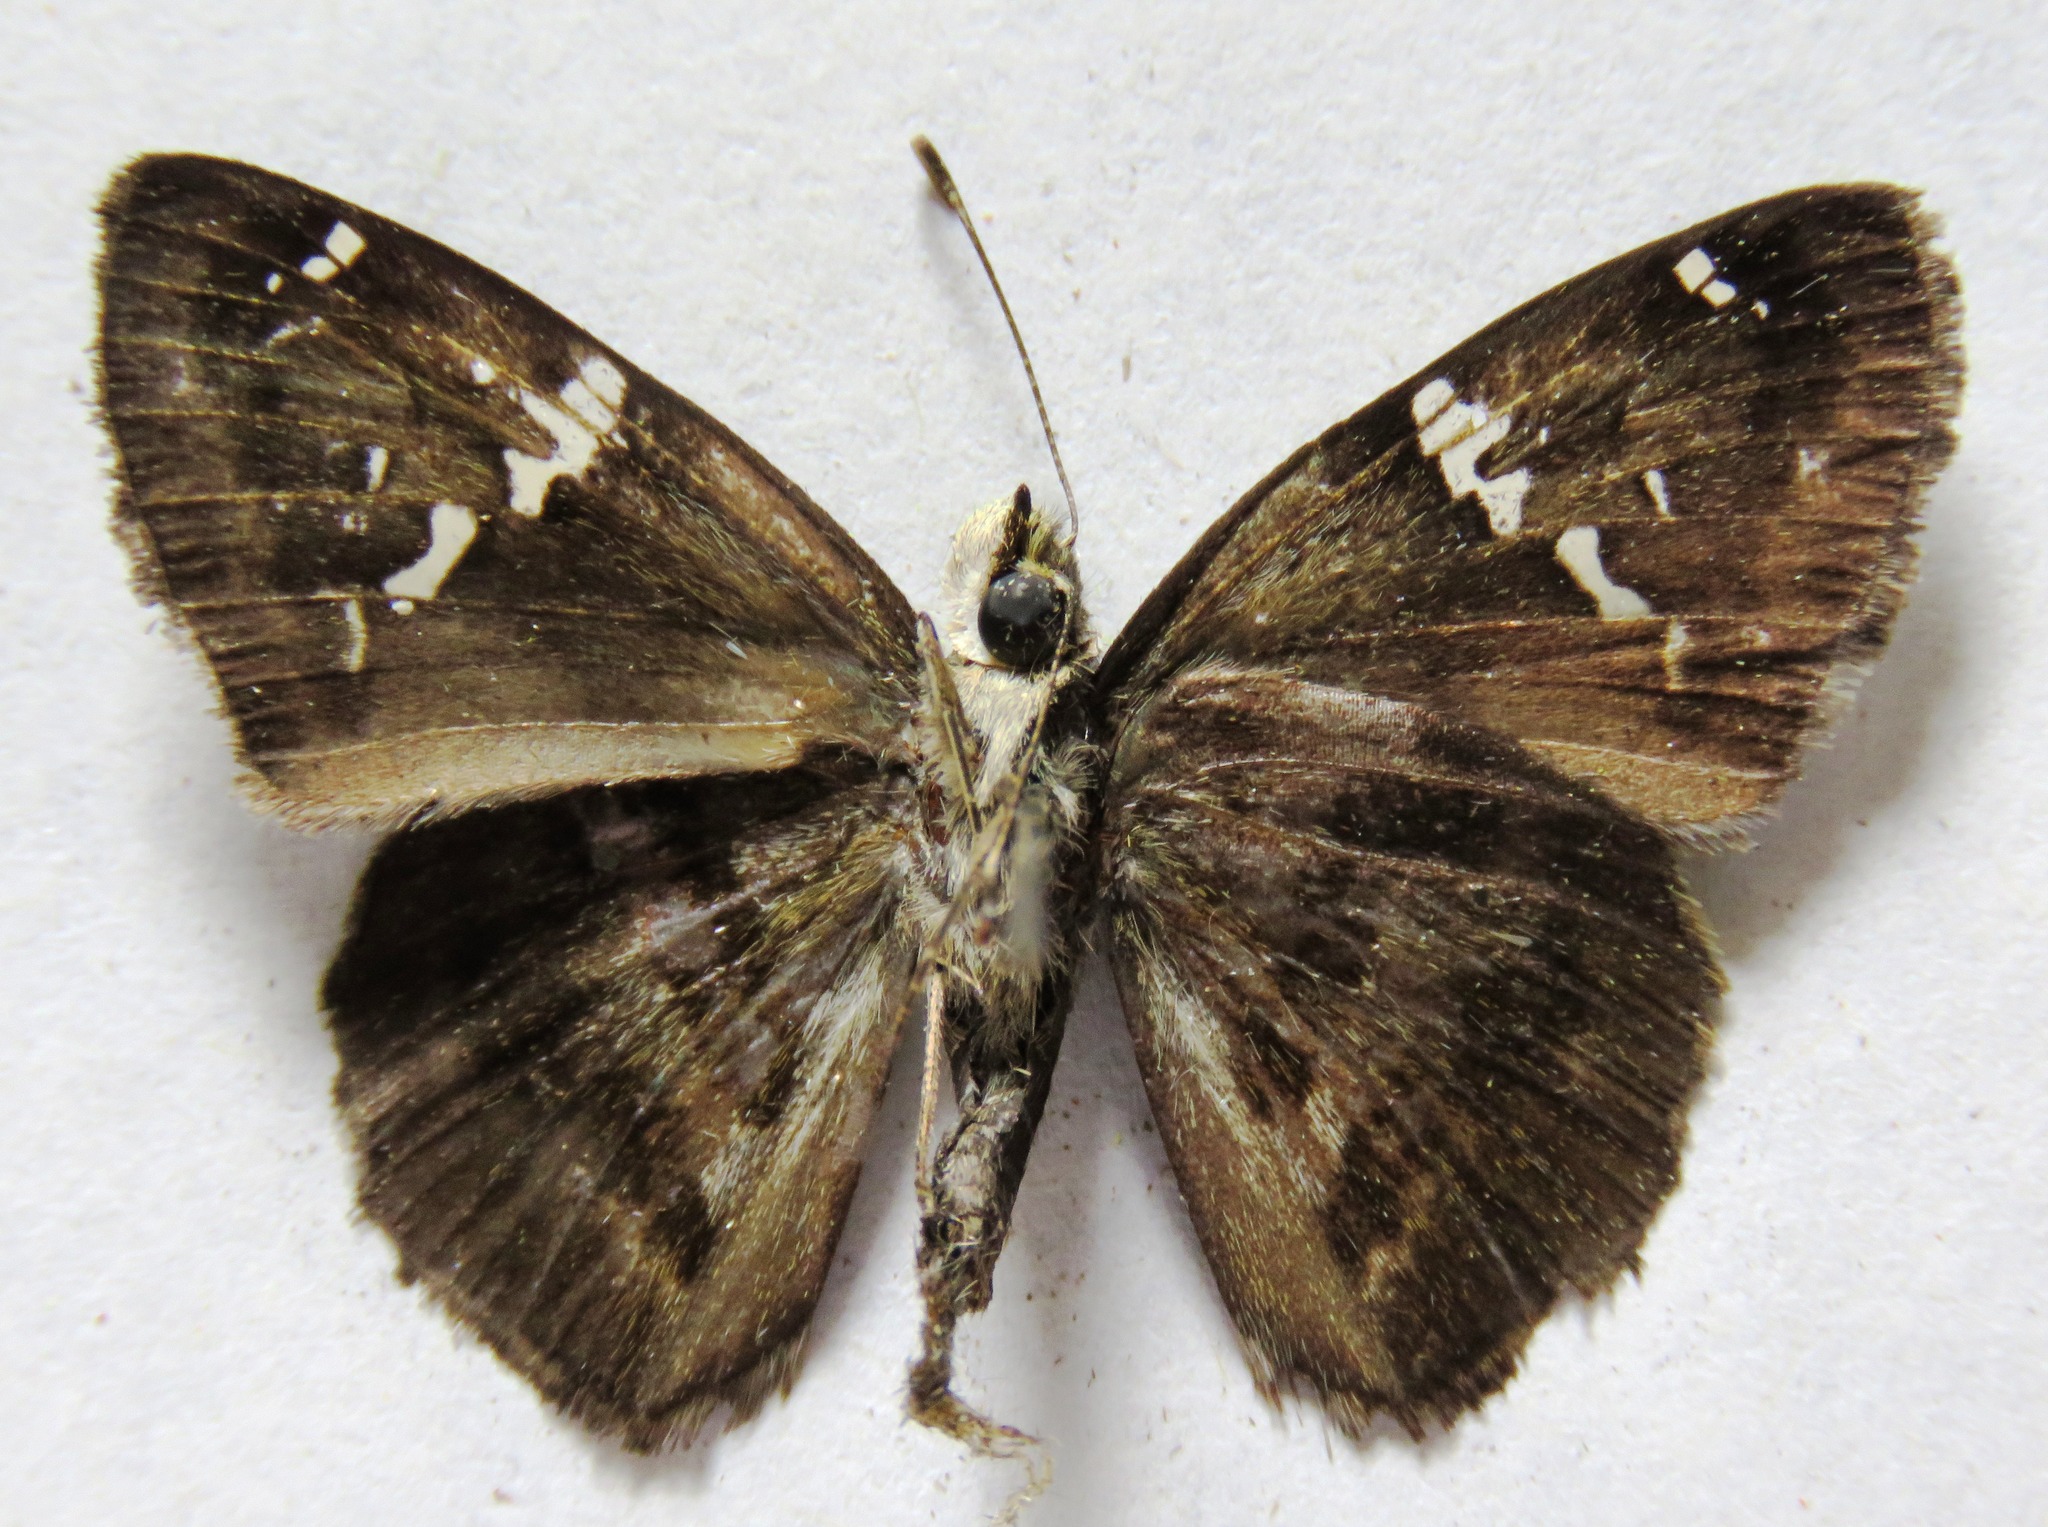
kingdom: Animalia
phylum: Arthropoda
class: Insecta
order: Lepidoptera
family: Hesperiidae
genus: Autochton
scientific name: Autochton potrillo
